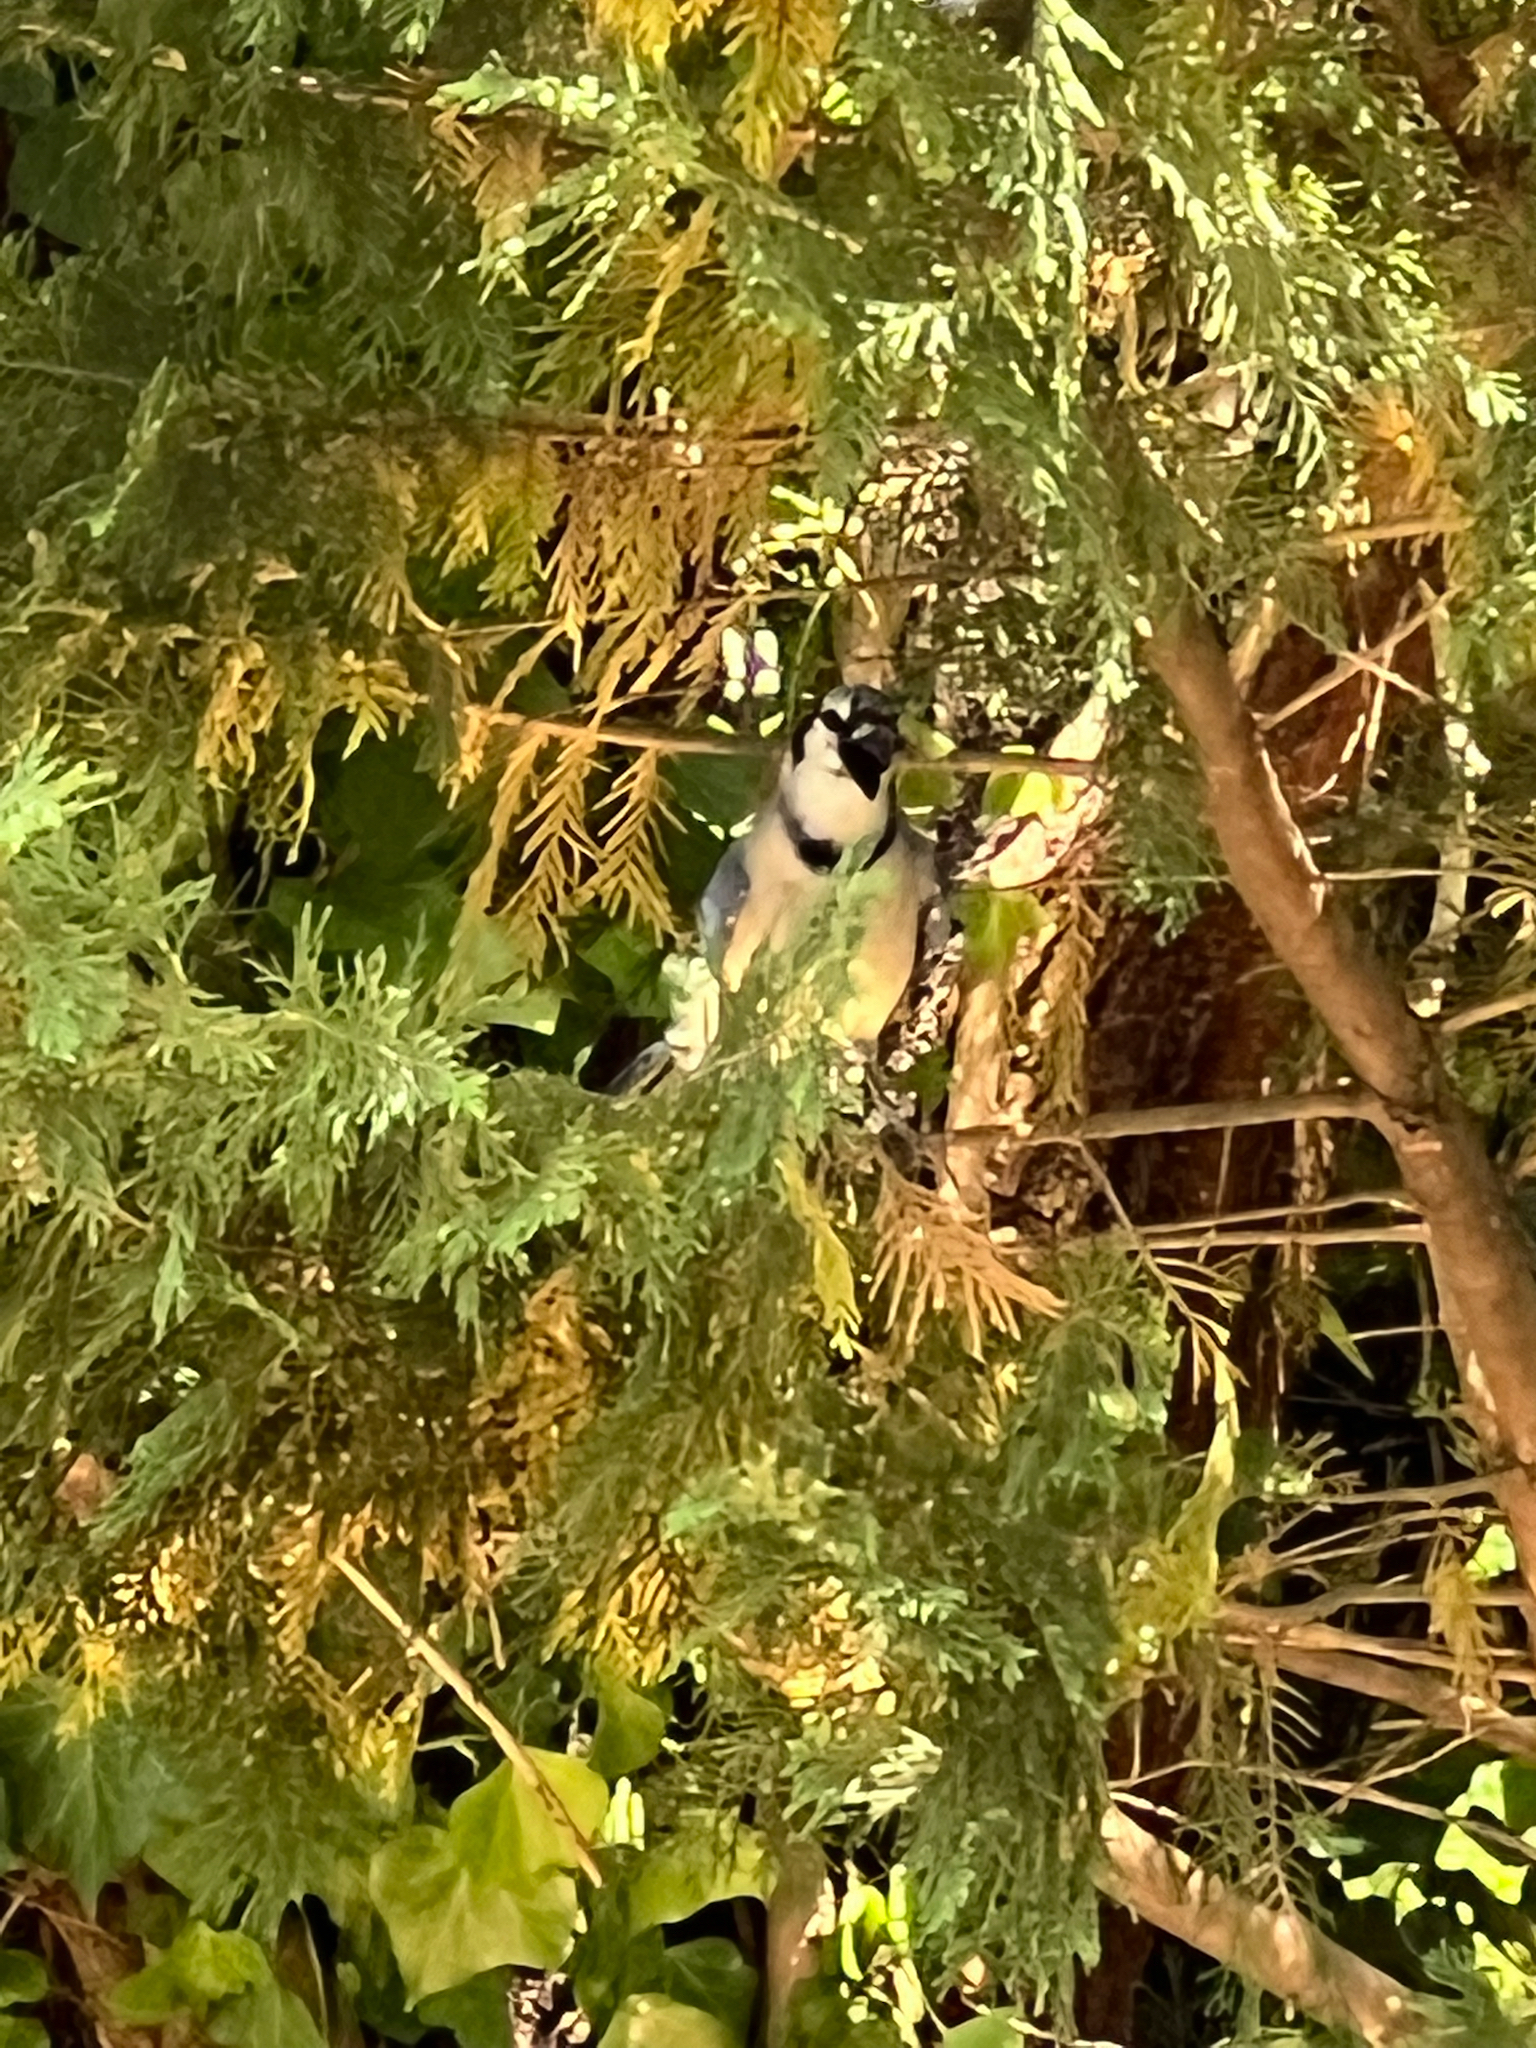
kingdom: Animalia
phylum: Chordata
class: Aves
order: Passeriformes
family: Corvidae
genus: Cyanocitta
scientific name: Cyanocitta cristata
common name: Blue jay
